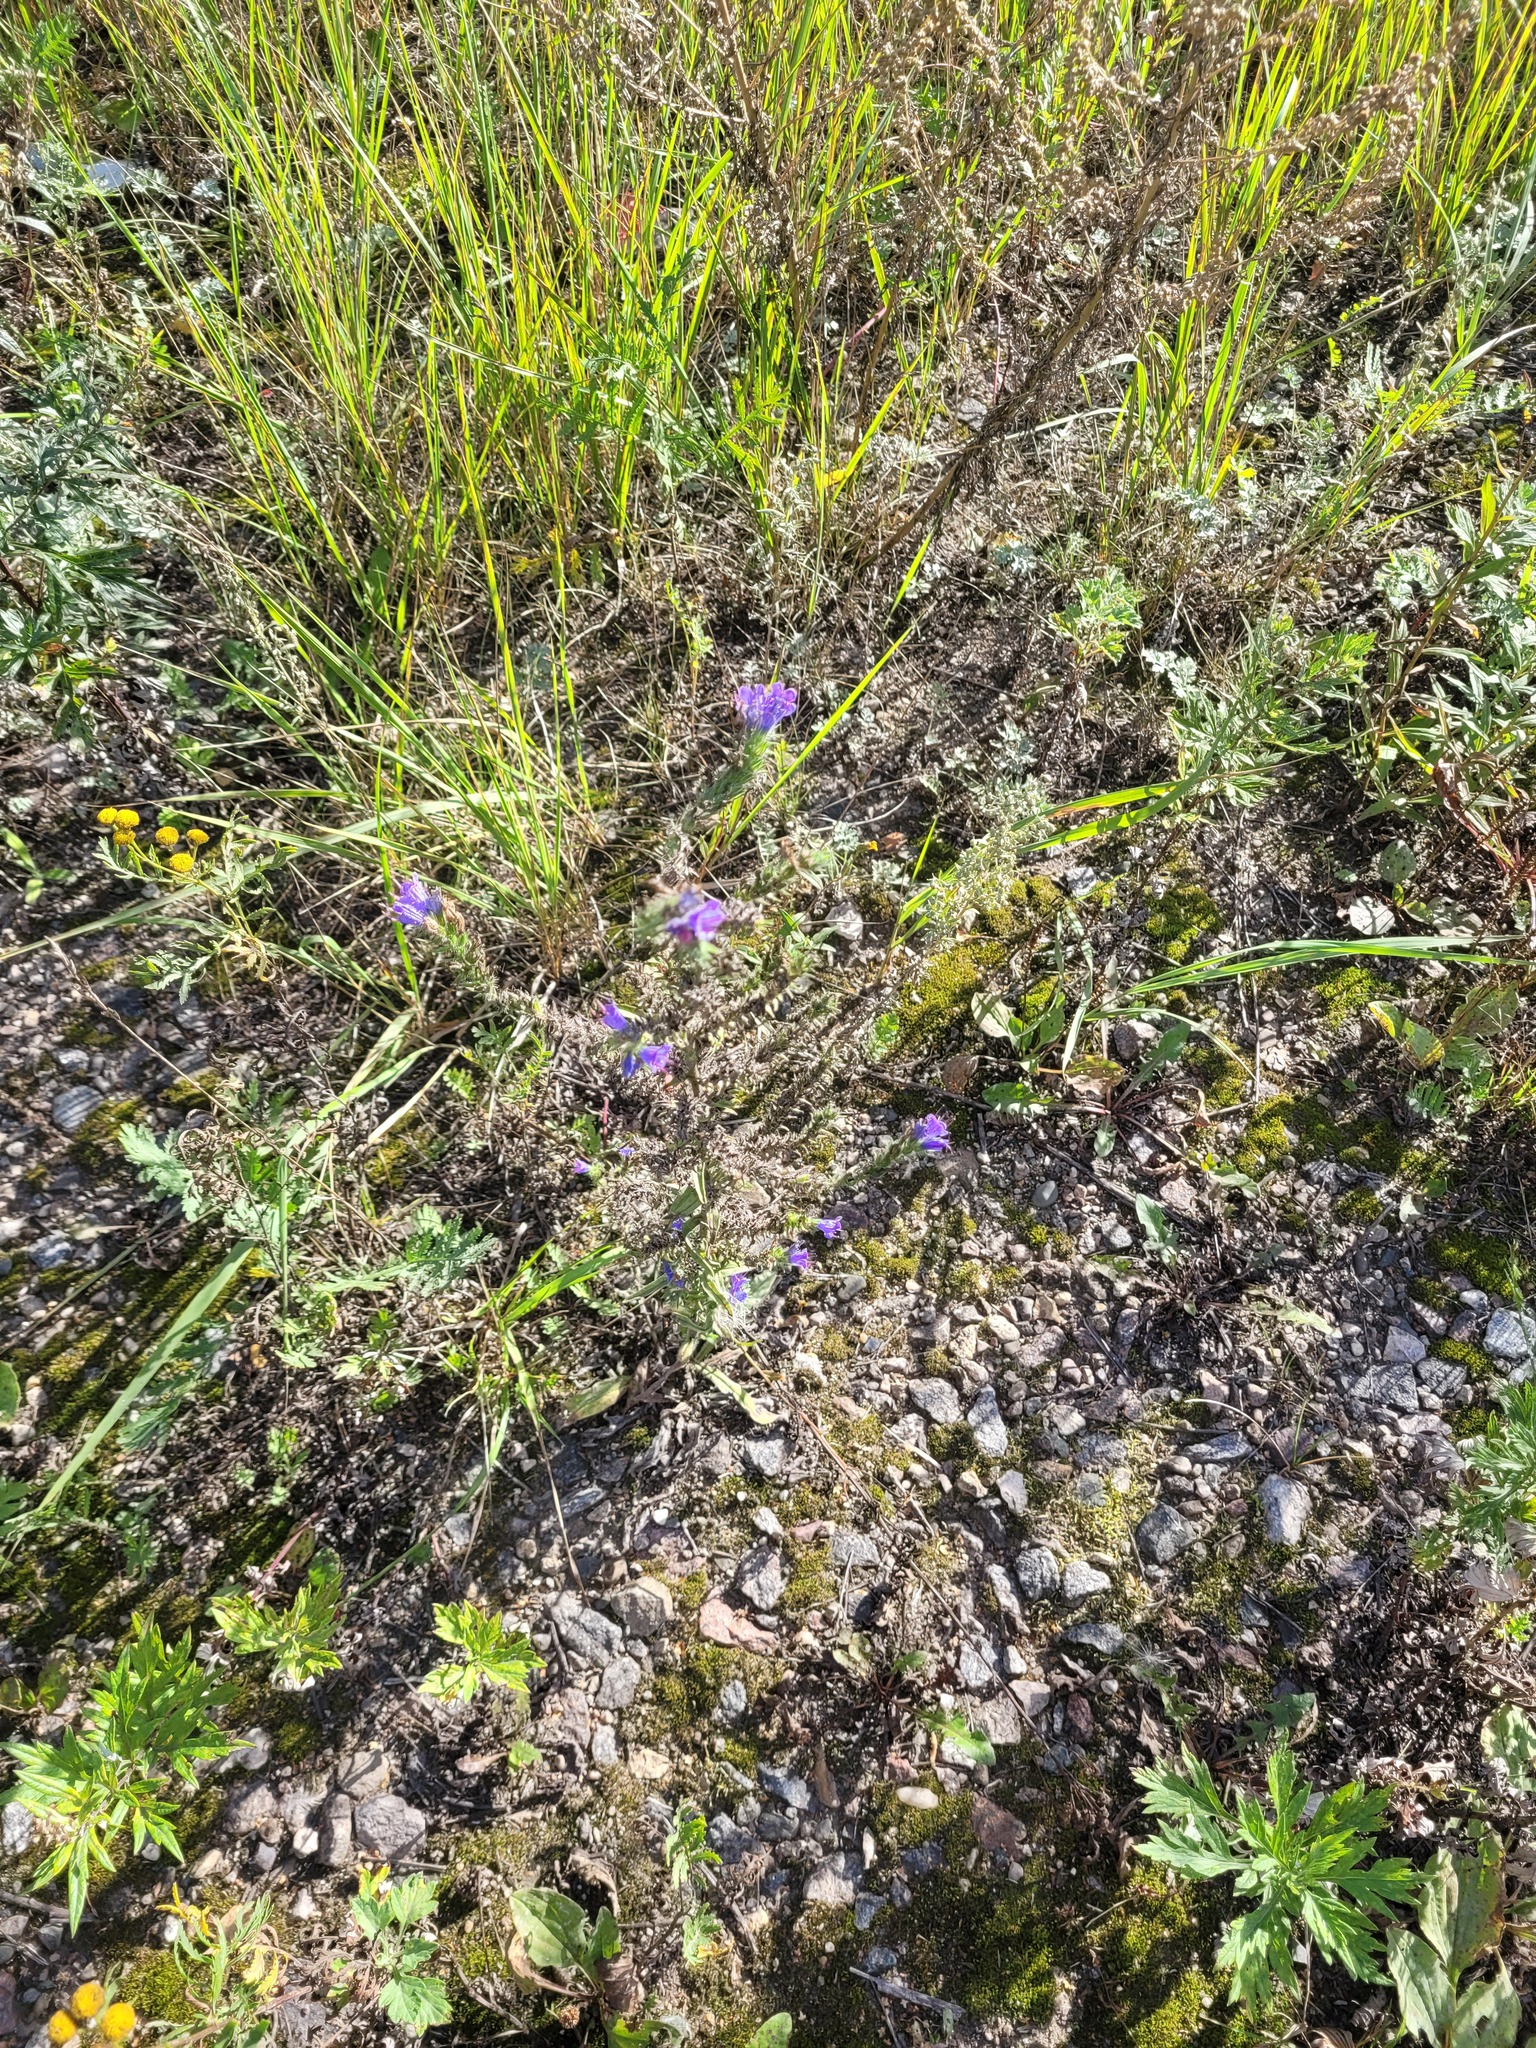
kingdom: Plantae
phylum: Tracheophyta
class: Magnoliopsida
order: Boraginales
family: Boraginaceae
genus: Echium
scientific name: Echium vulgare
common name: Common viper's bugloss
